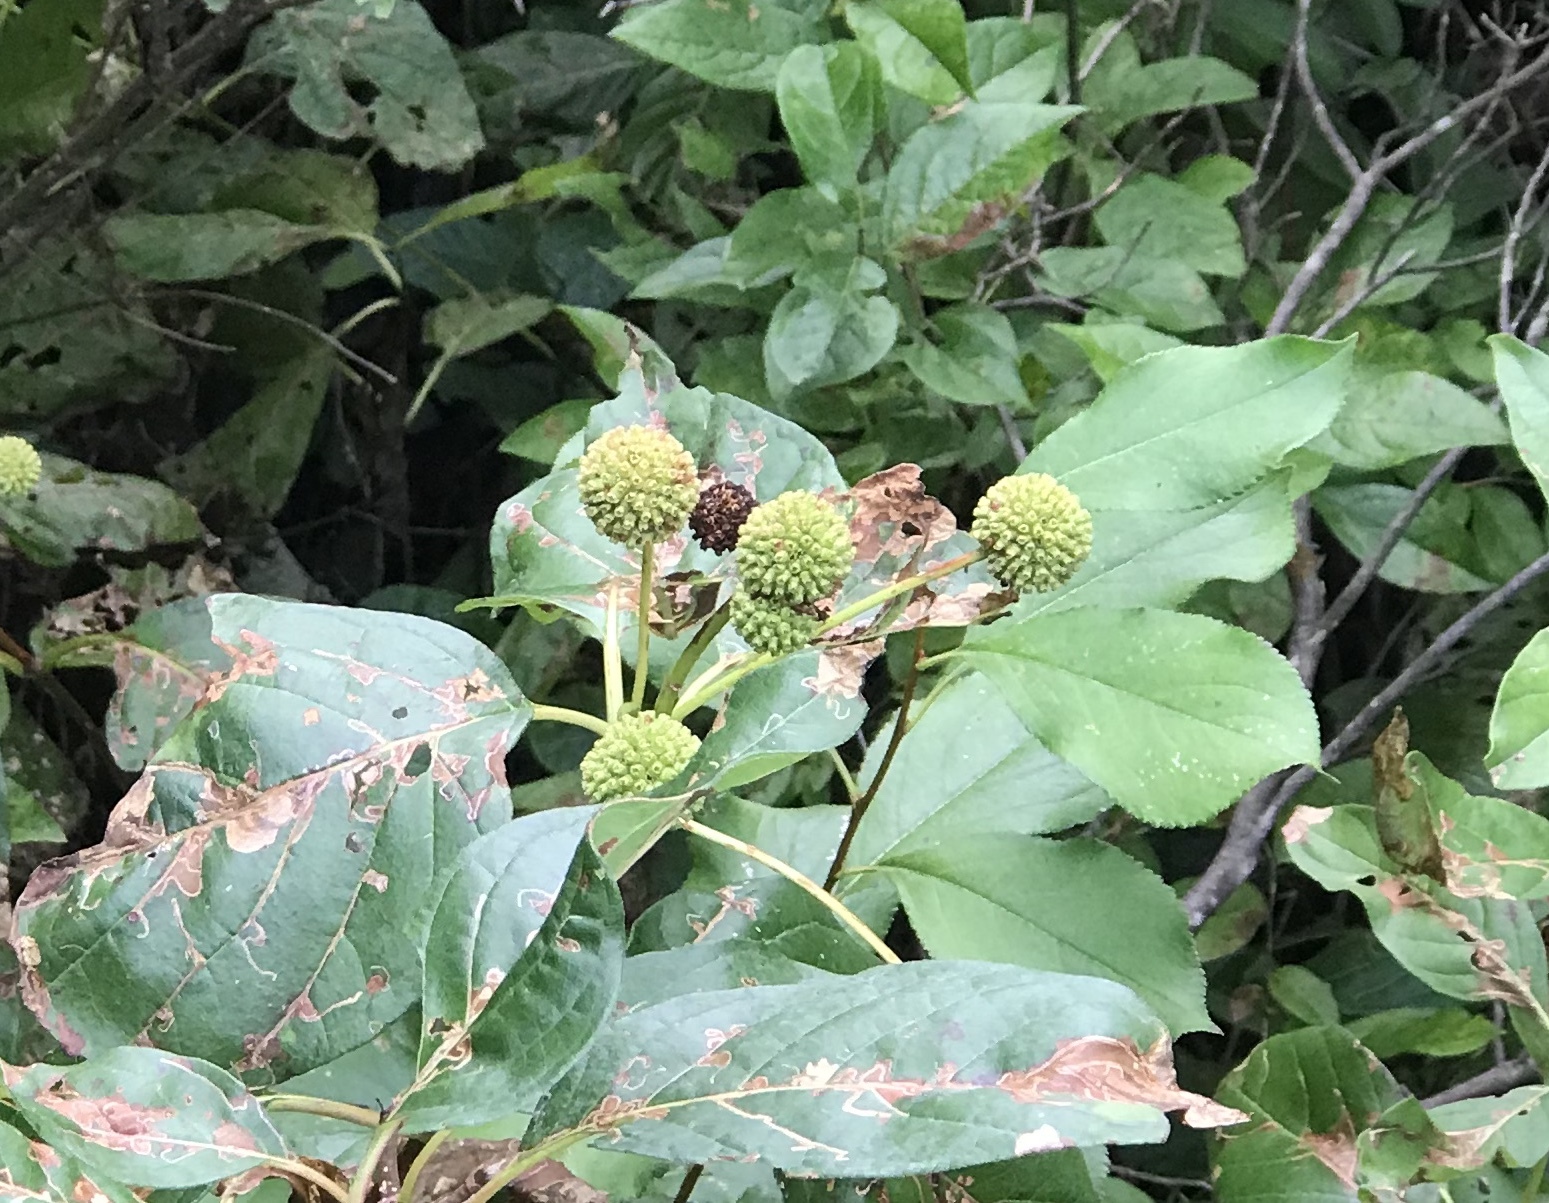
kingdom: Plantae
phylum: Tracheophyta
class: Magnoliopsida
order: Gentianales
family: Rubiaceae
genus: Cephalanthus
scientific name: Cephalanthus occidentalis
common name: Button-willow
